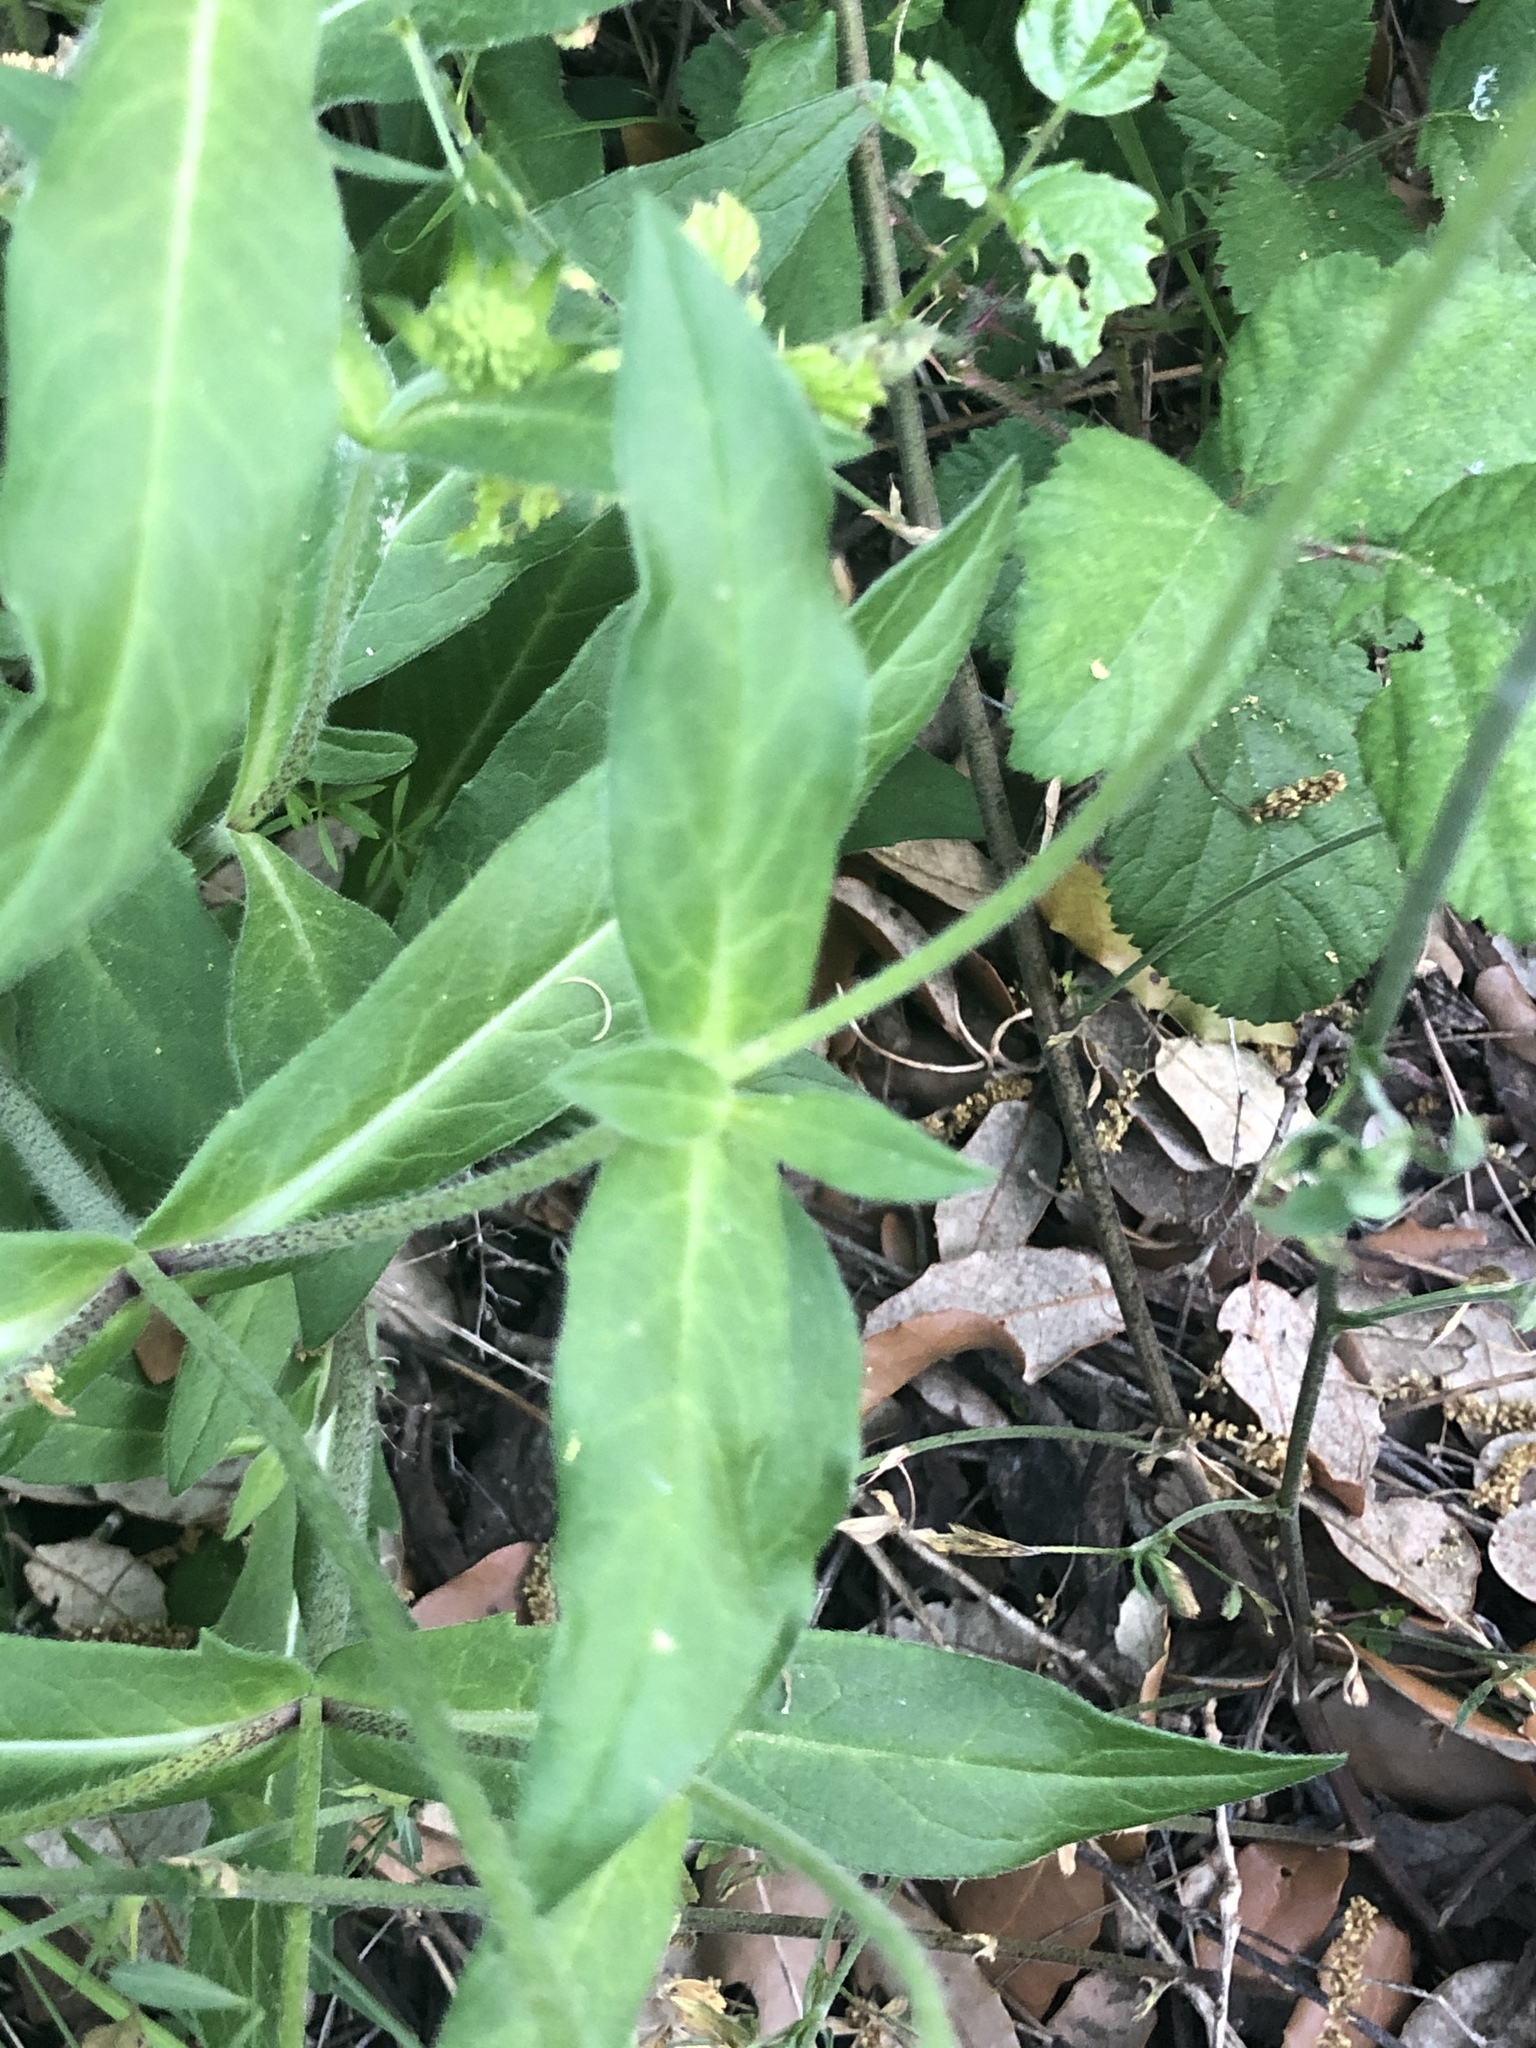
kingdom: Plantae
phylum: Tracheophyta
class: Magnoliopsida
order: Dipsacales
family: Caprifoliaceae
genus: Knautia
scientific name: Knautia arvensis
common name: Field scabiosa
